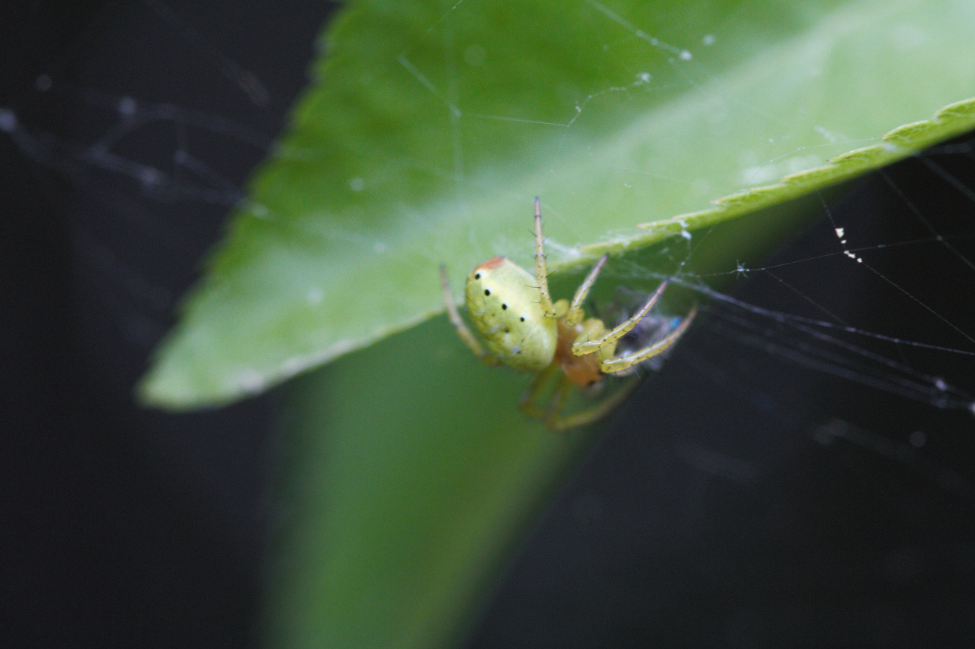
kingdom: Animalia
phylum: Arthropoda
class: Arachnida
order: Araneae
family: Araneidae
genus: Araniella
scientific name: Araniella
